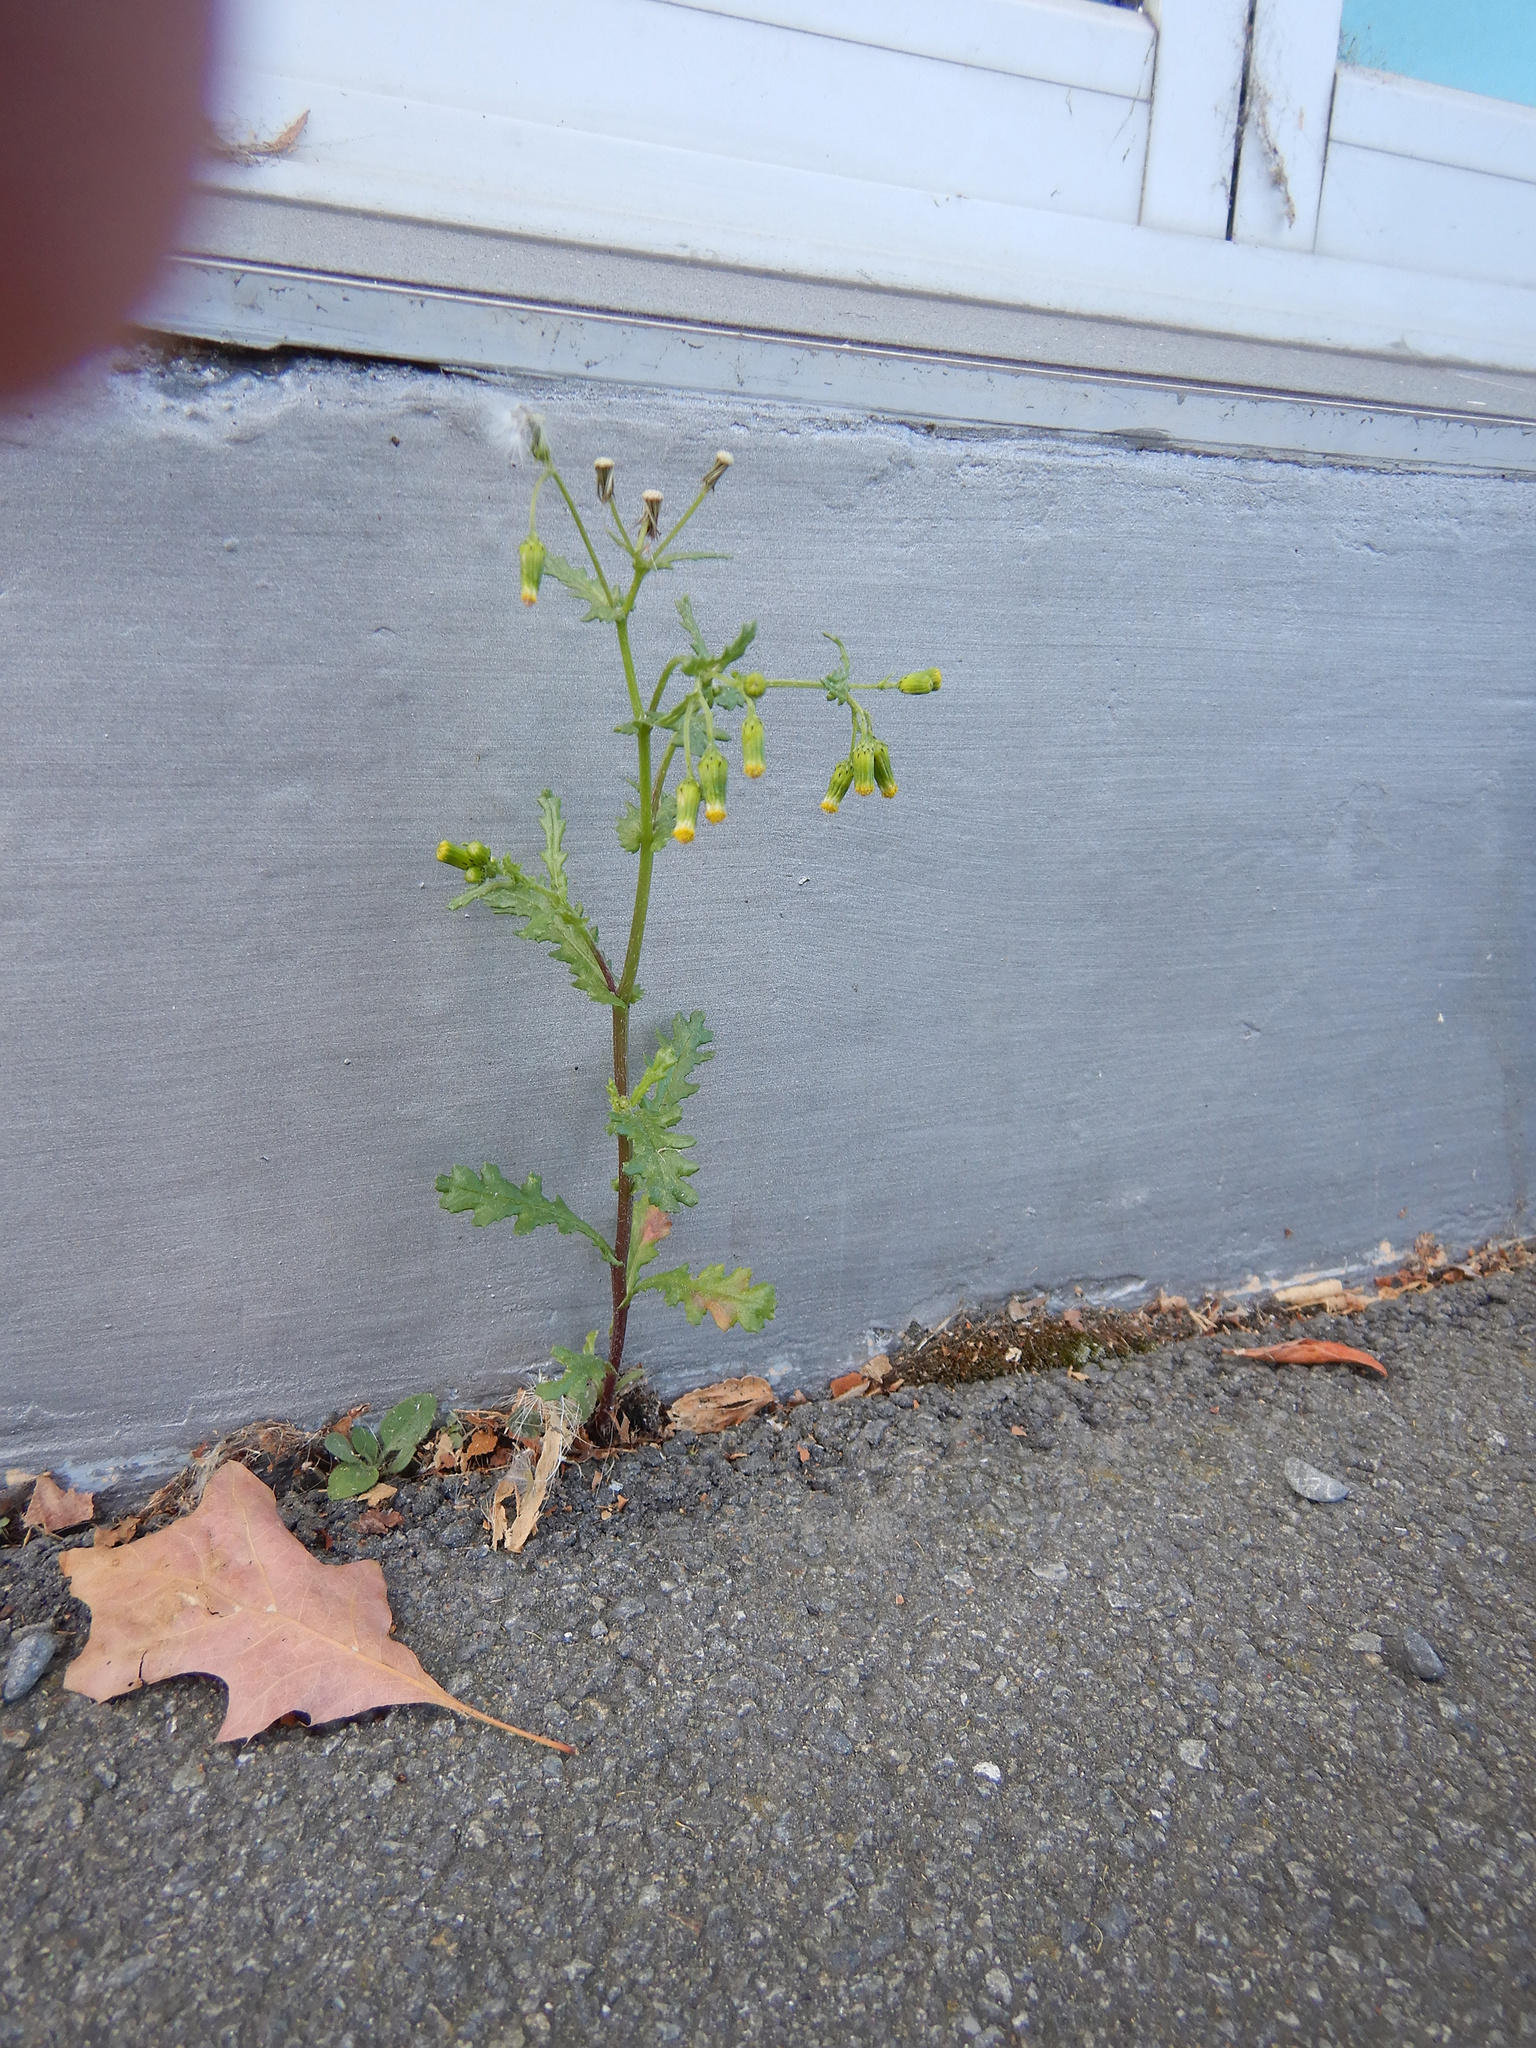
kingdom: Plantae
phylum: Tracheophyta
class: Magnoliopsida
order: Asterales
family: Asteraceae
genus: Senecio
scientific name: Senecio vulgaris
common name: Old-man-in-the-spring
